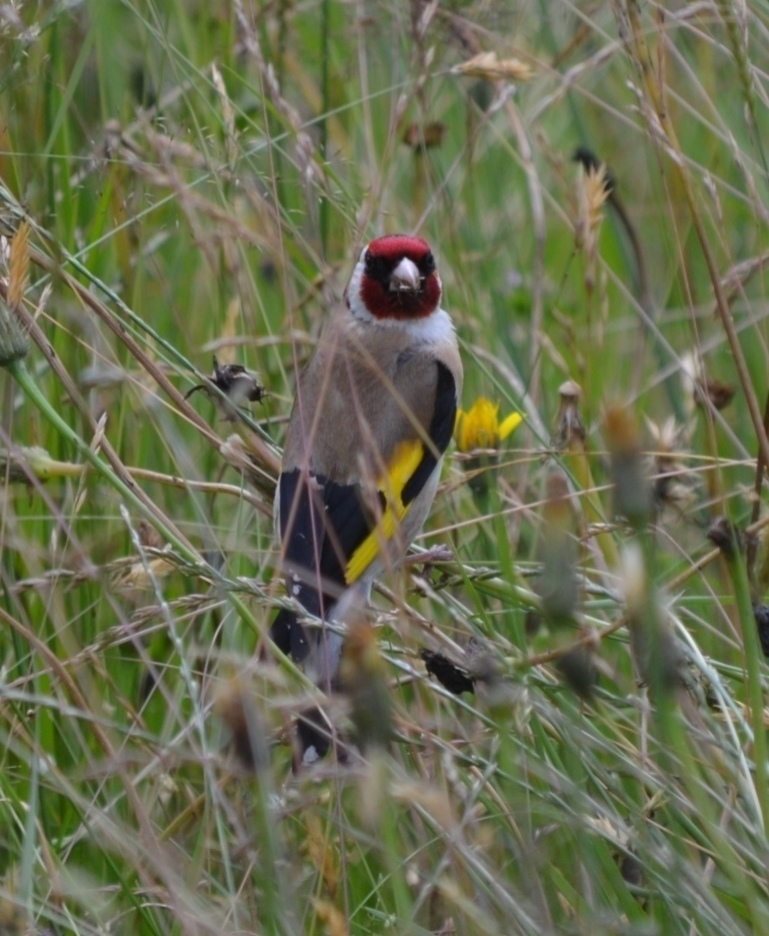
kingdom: Animalia
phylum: Chordata
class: Aves
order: Passeriformes
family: Fringillidae
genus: Carduelis
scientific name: Carduelis carduelis
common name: European goldfinch
